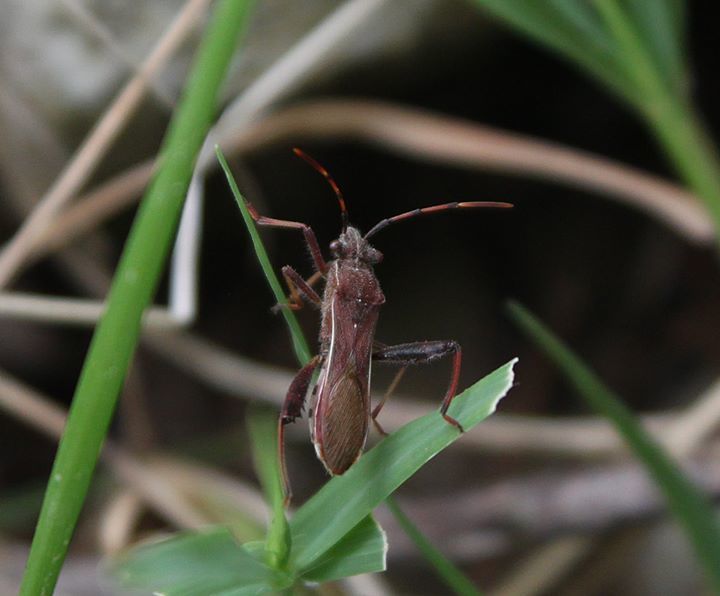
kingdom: Animalia
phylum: Arthropoda
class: Insecta
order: Hemiptera
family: Alydidae
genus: Camptopus
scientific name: Camptopus lateralis
